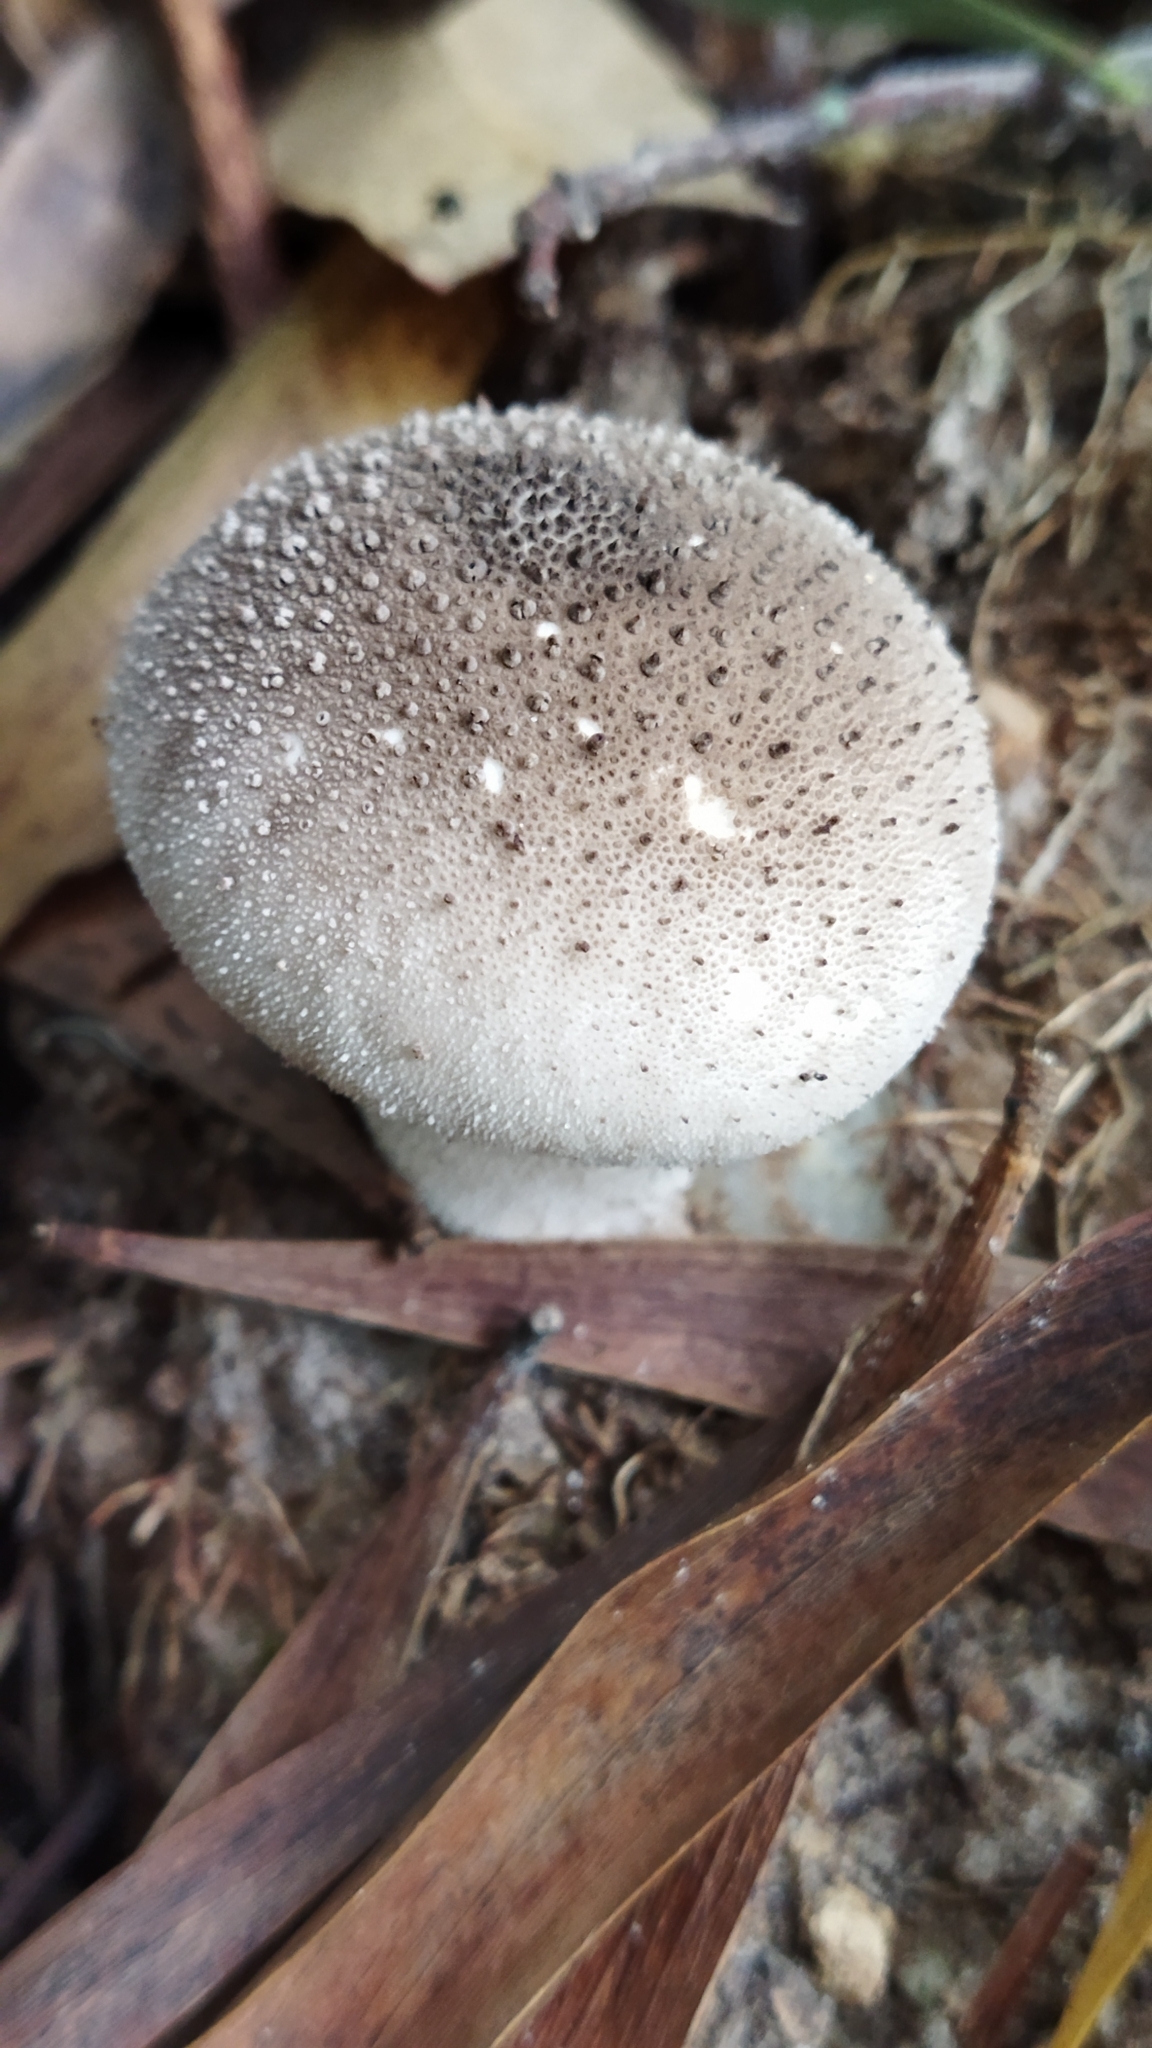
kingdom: Fungi
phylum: Basidiomycota
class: Agaricomycetes
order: Agaricales
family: Lycoperdaceae
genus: Lycoperdon
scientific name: Lycoperdon perlatum
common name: Common puffball
